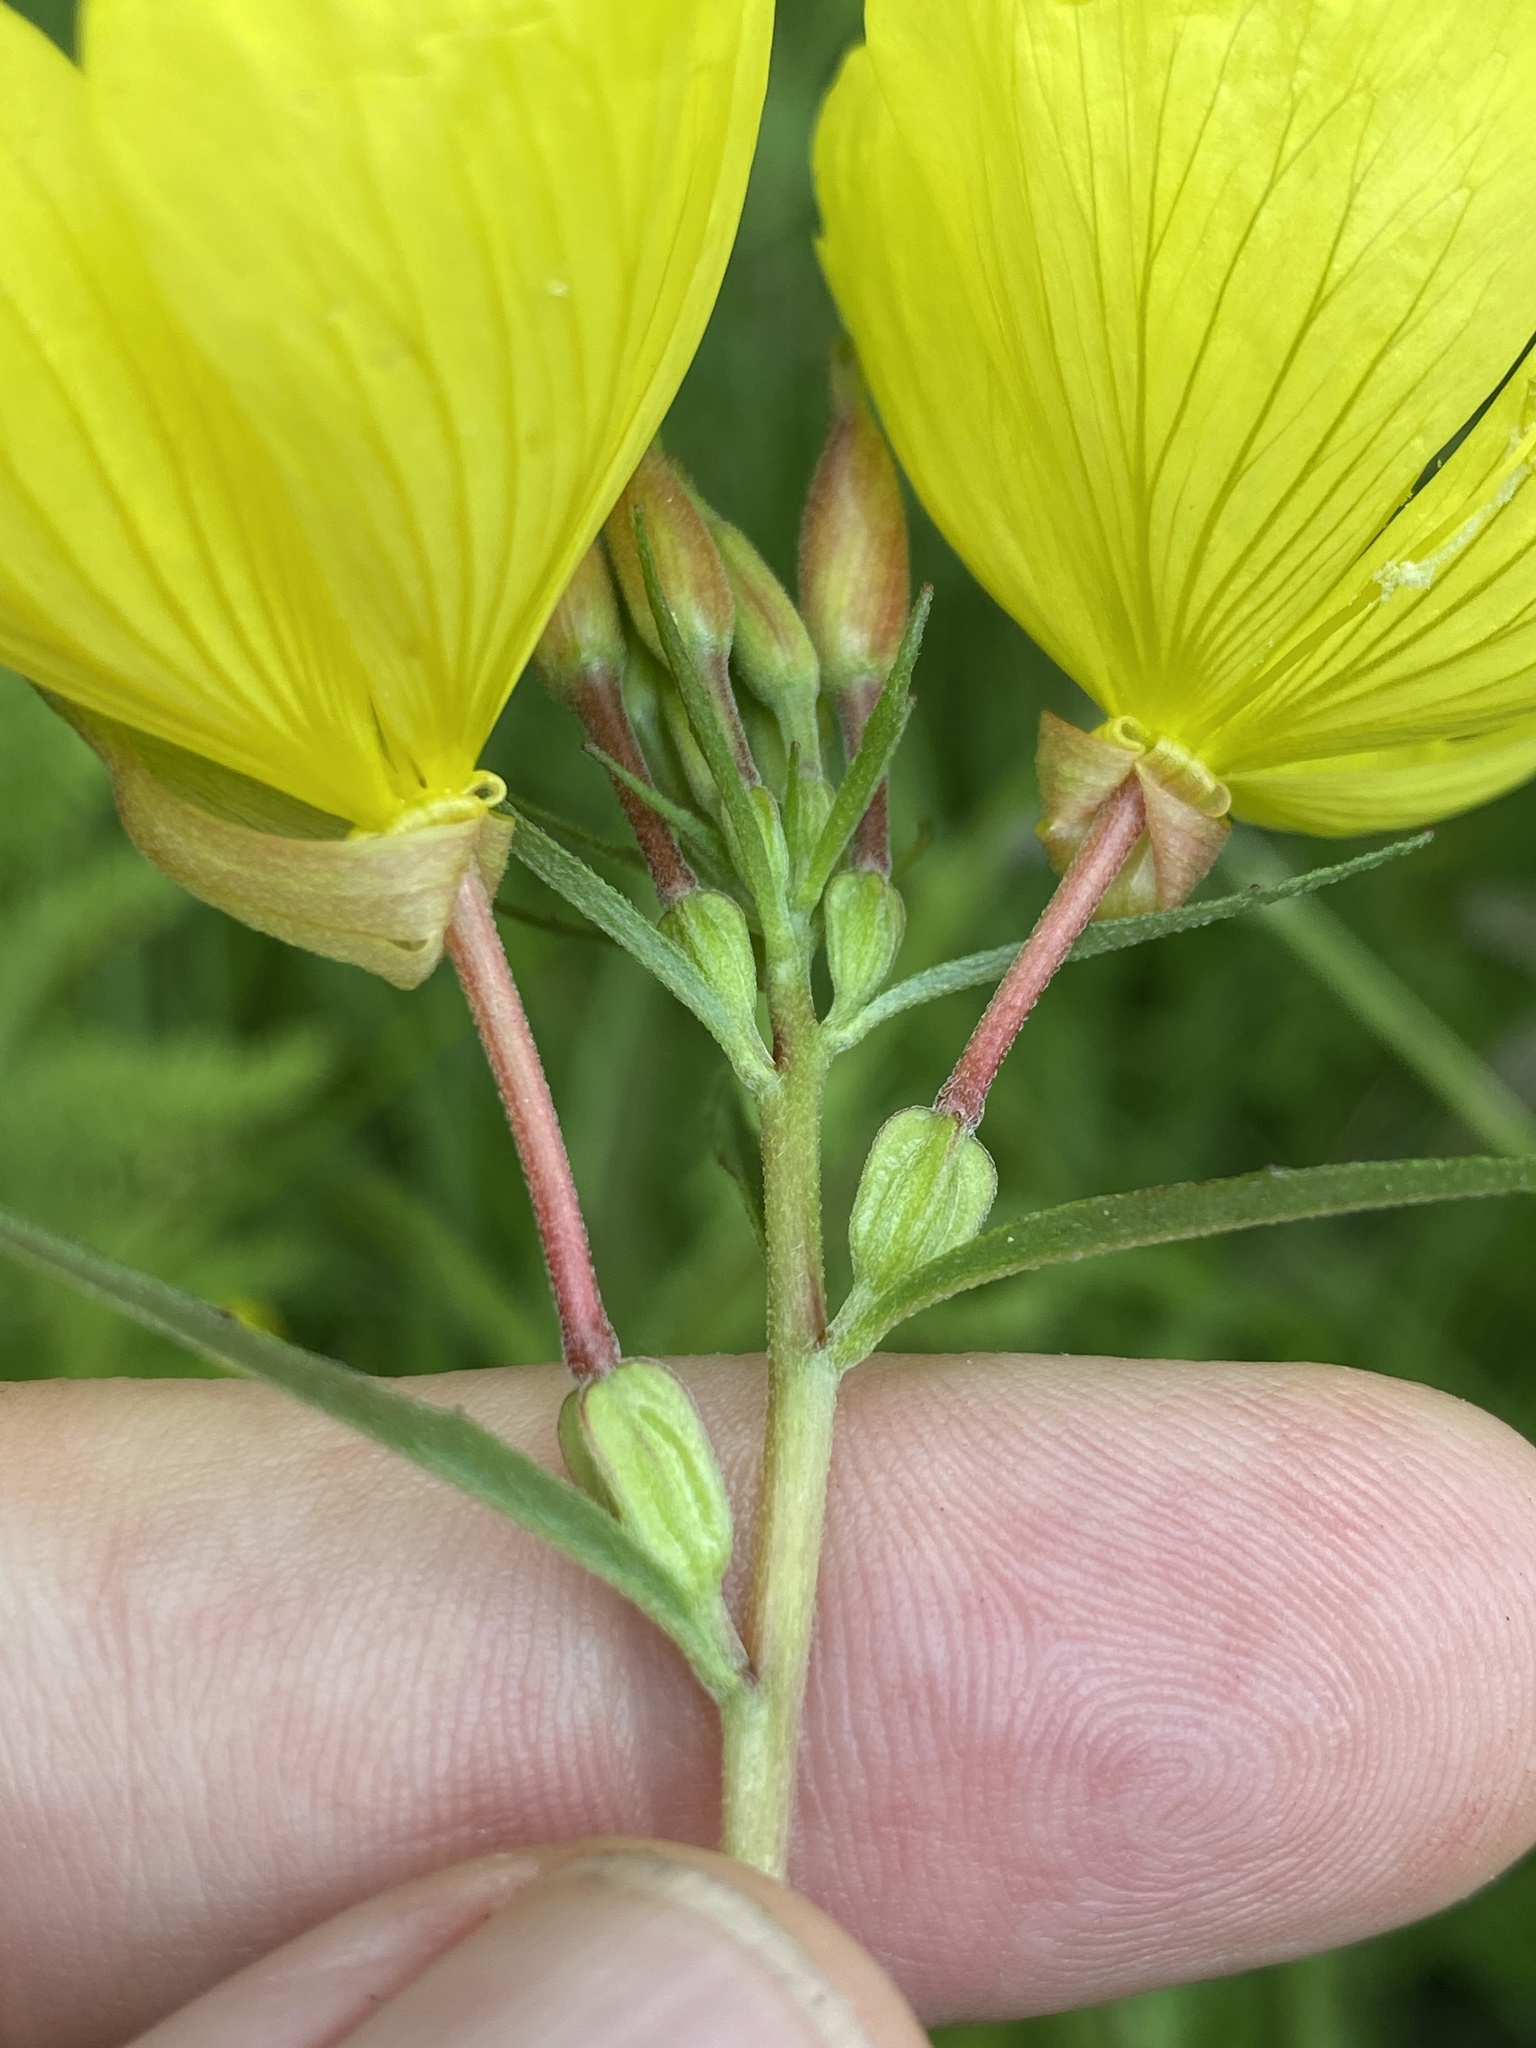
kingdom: Plantae
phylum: Tracheophyta
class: Magnoliopsida
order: Myrtales
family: Onagraceae
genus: Oenothera
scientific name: Oenothera tetragona
